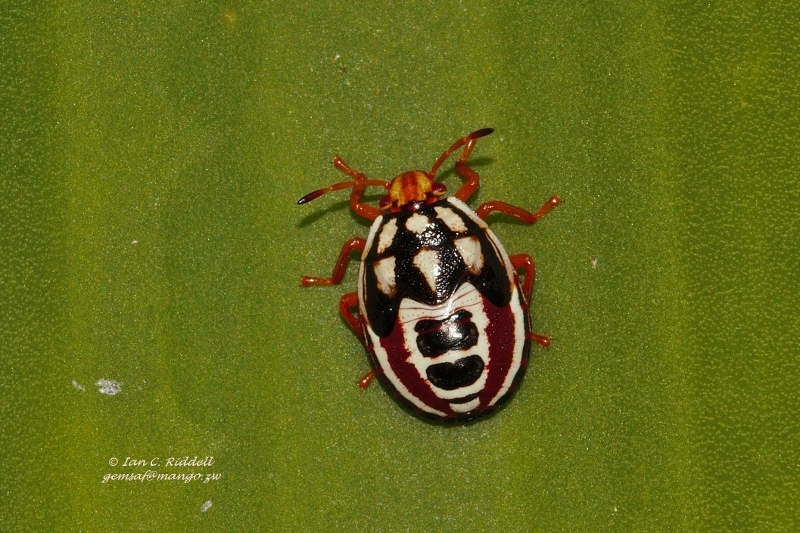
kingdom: Animalia
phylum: Arthropoda
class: Insecta
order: Hemiptera
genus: Flaminia
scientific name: Flaminia
